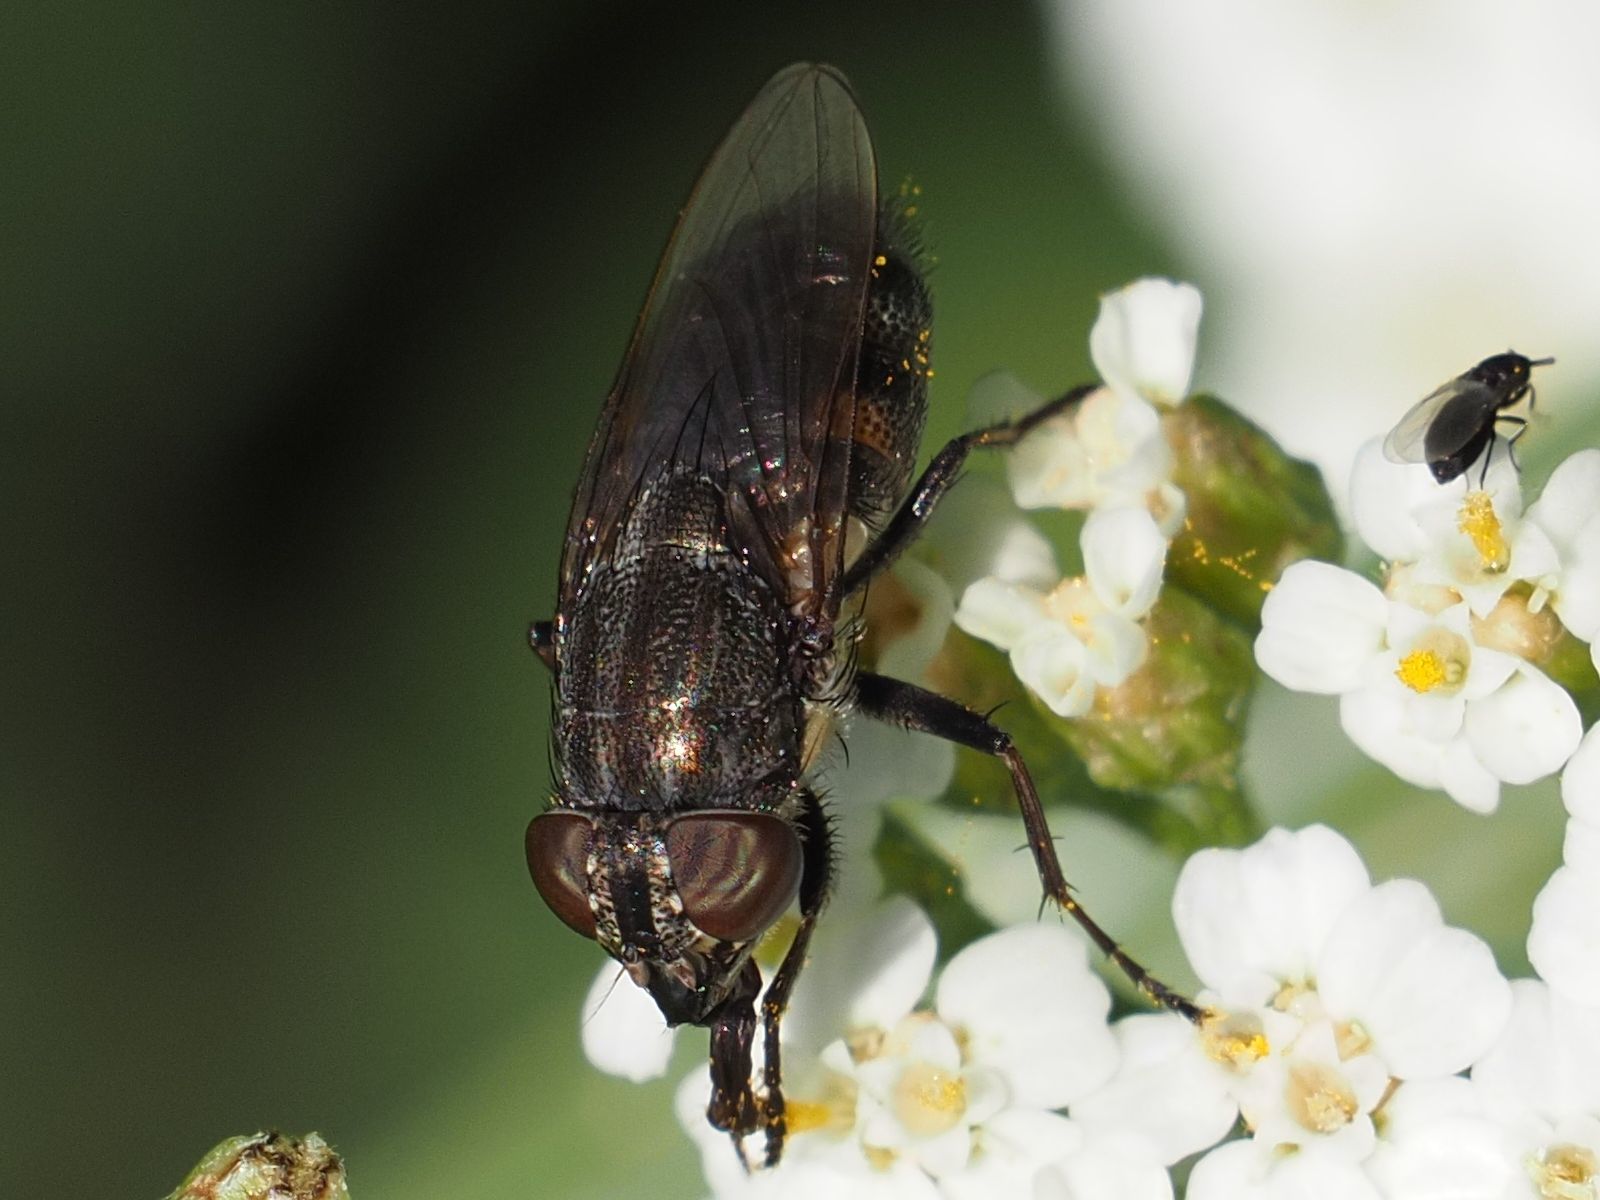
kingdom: Animalia
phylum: Arthropoda
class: Insecta
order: Diptera
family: Calliphoridae
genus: Stomorhina
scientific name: Stomorhina lunata
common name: Locust blowfly
